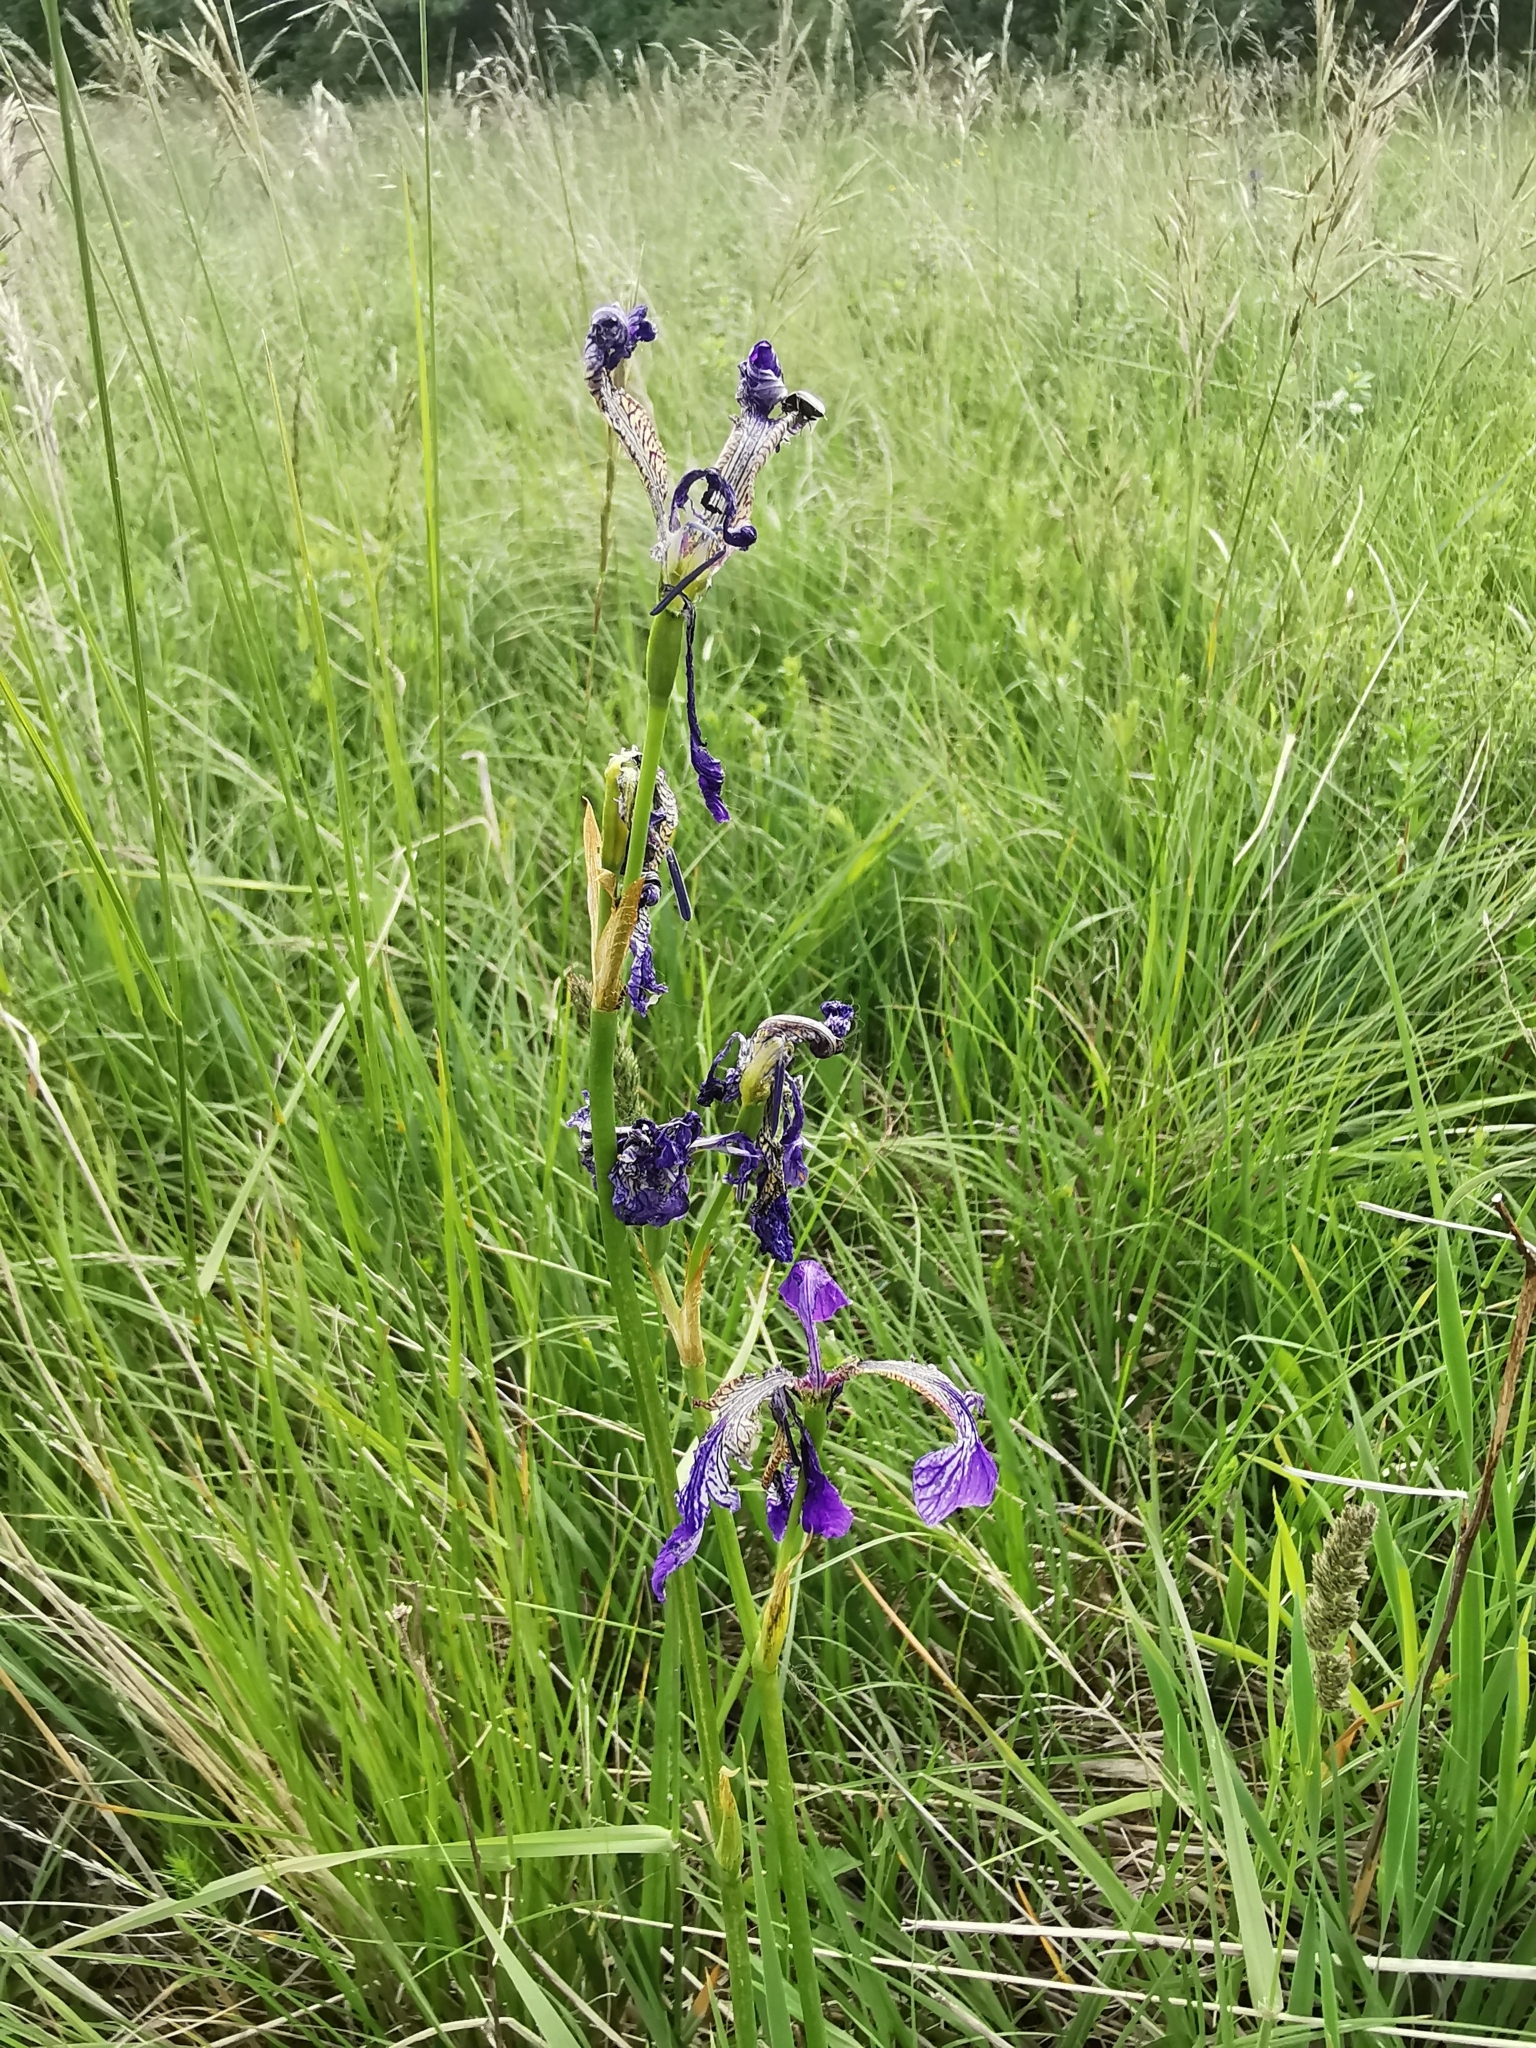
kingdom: Plantae
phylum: Tracheophyta
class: Liliopsida
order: Asparagales
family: Iridaceae
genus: Iris
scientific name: Iris sibirica
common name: Siberian iris
